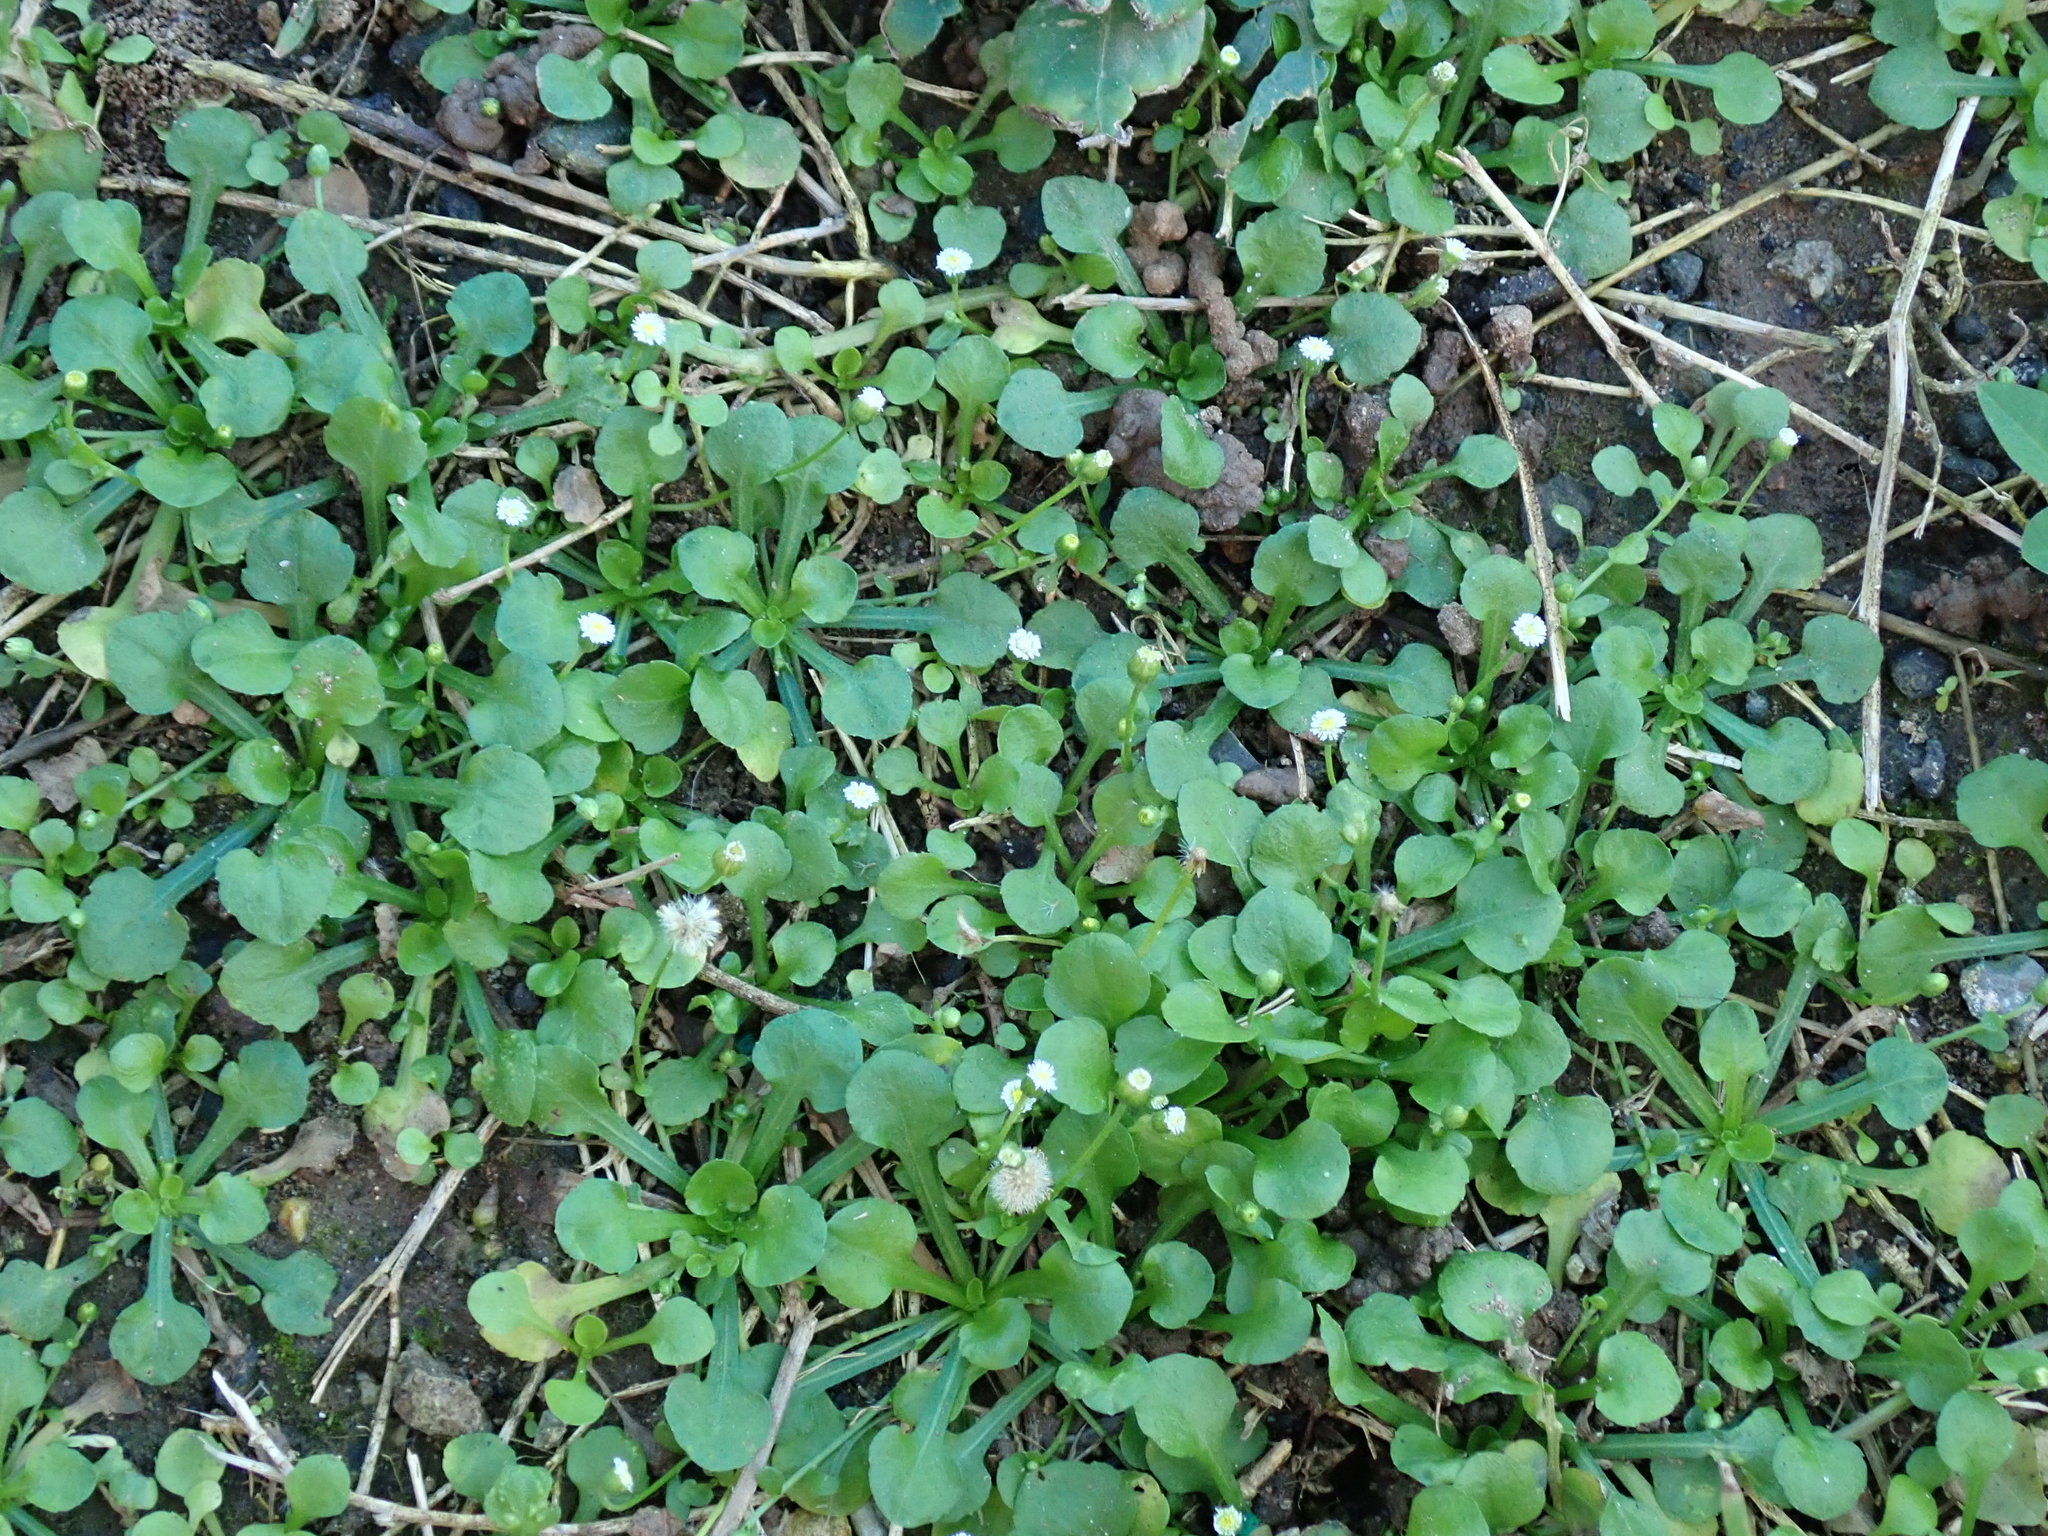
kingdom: Plantae
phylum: Tracheophyta
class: Magnoliopsida
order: Asterales
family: Asteraceae
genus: Erigeron
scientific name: Erigeron bellioides
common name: Bellorita
